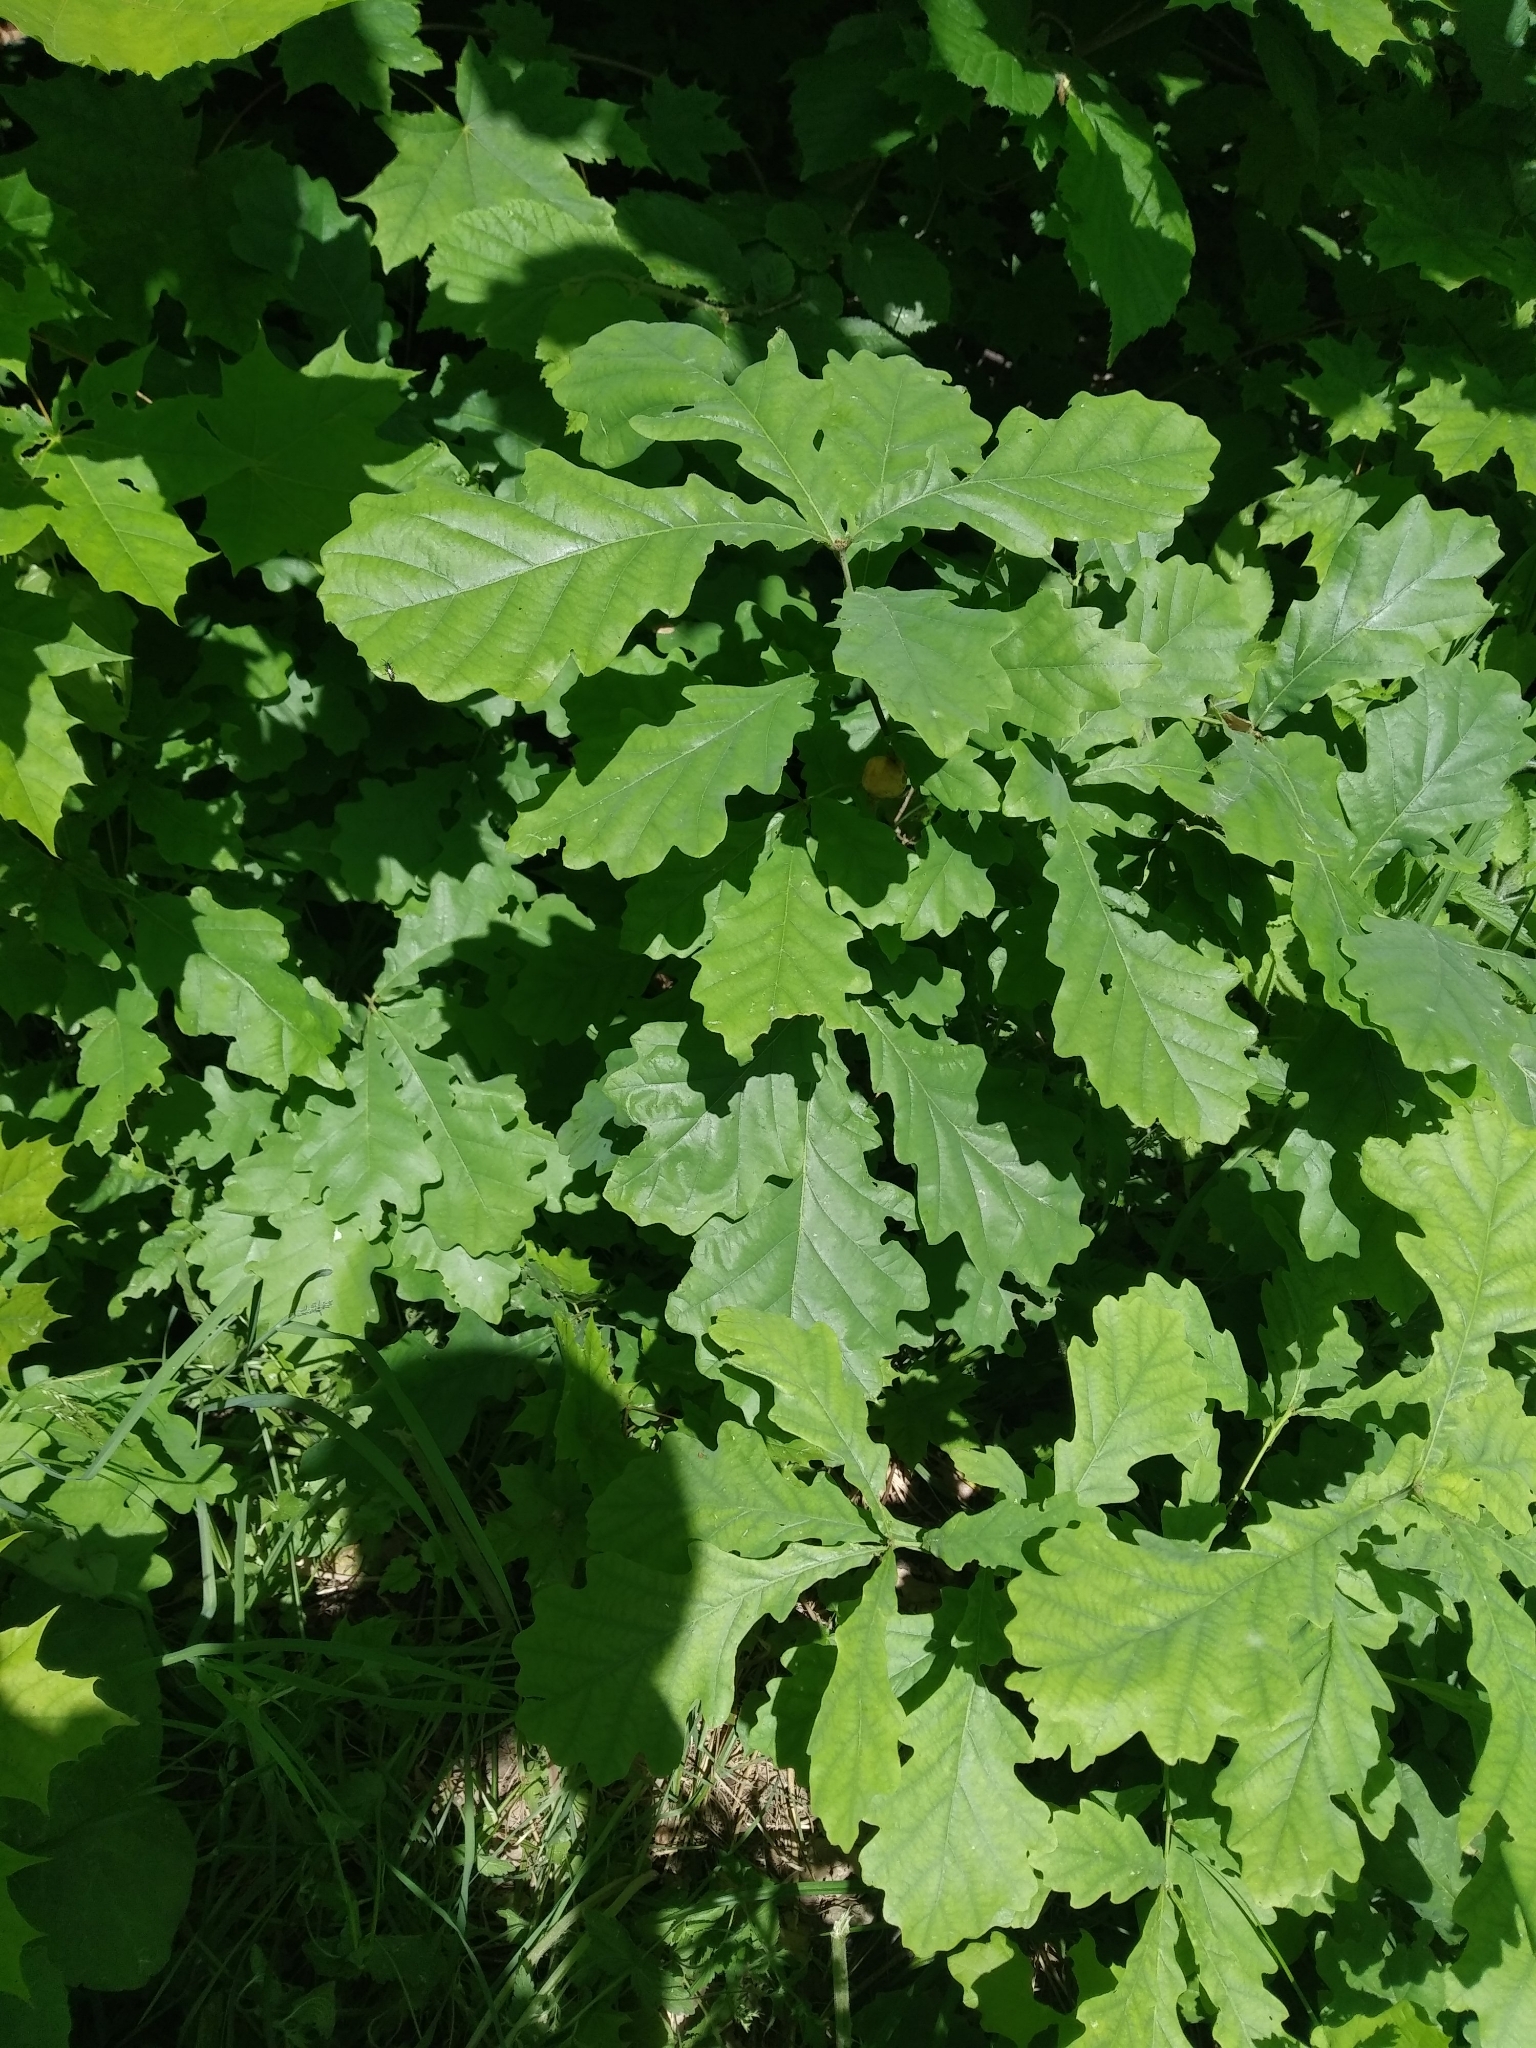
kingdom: Plantae
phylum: Tracheophyta
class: Magnoliopsida
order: Fagales
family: Fagaceae
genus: Quercus
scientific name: Quercus robur
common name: Pedunculate oak
